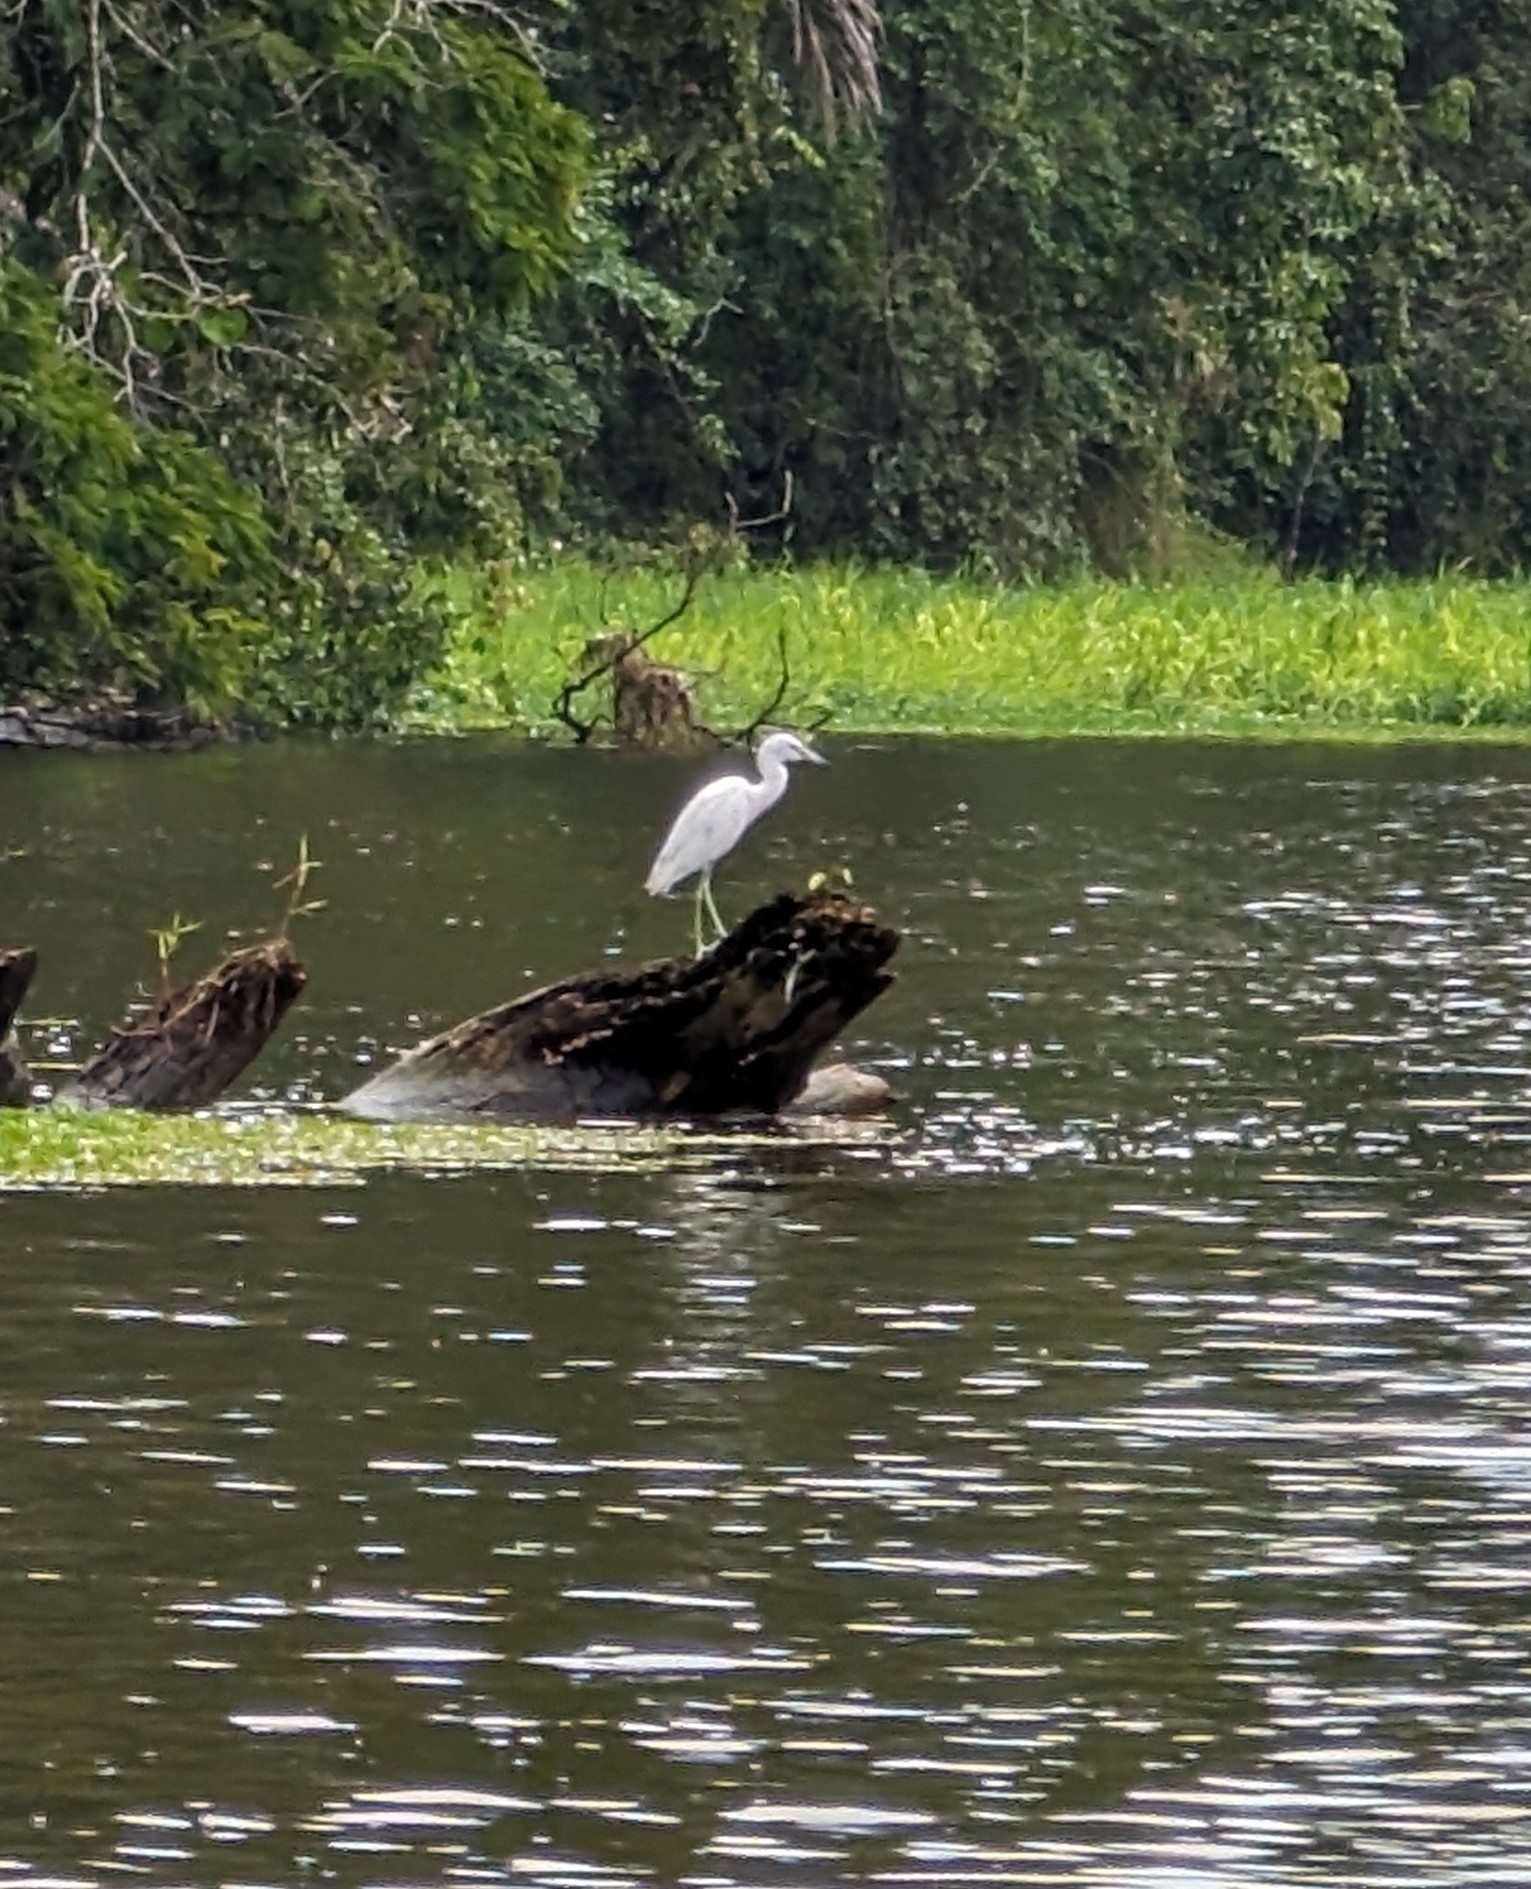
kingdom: Animalia
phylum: Chordata
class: Aves
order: Pelecaniformes
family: Ardeidae
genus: Egretta
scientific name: Egretta thula
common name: Snowy egret
